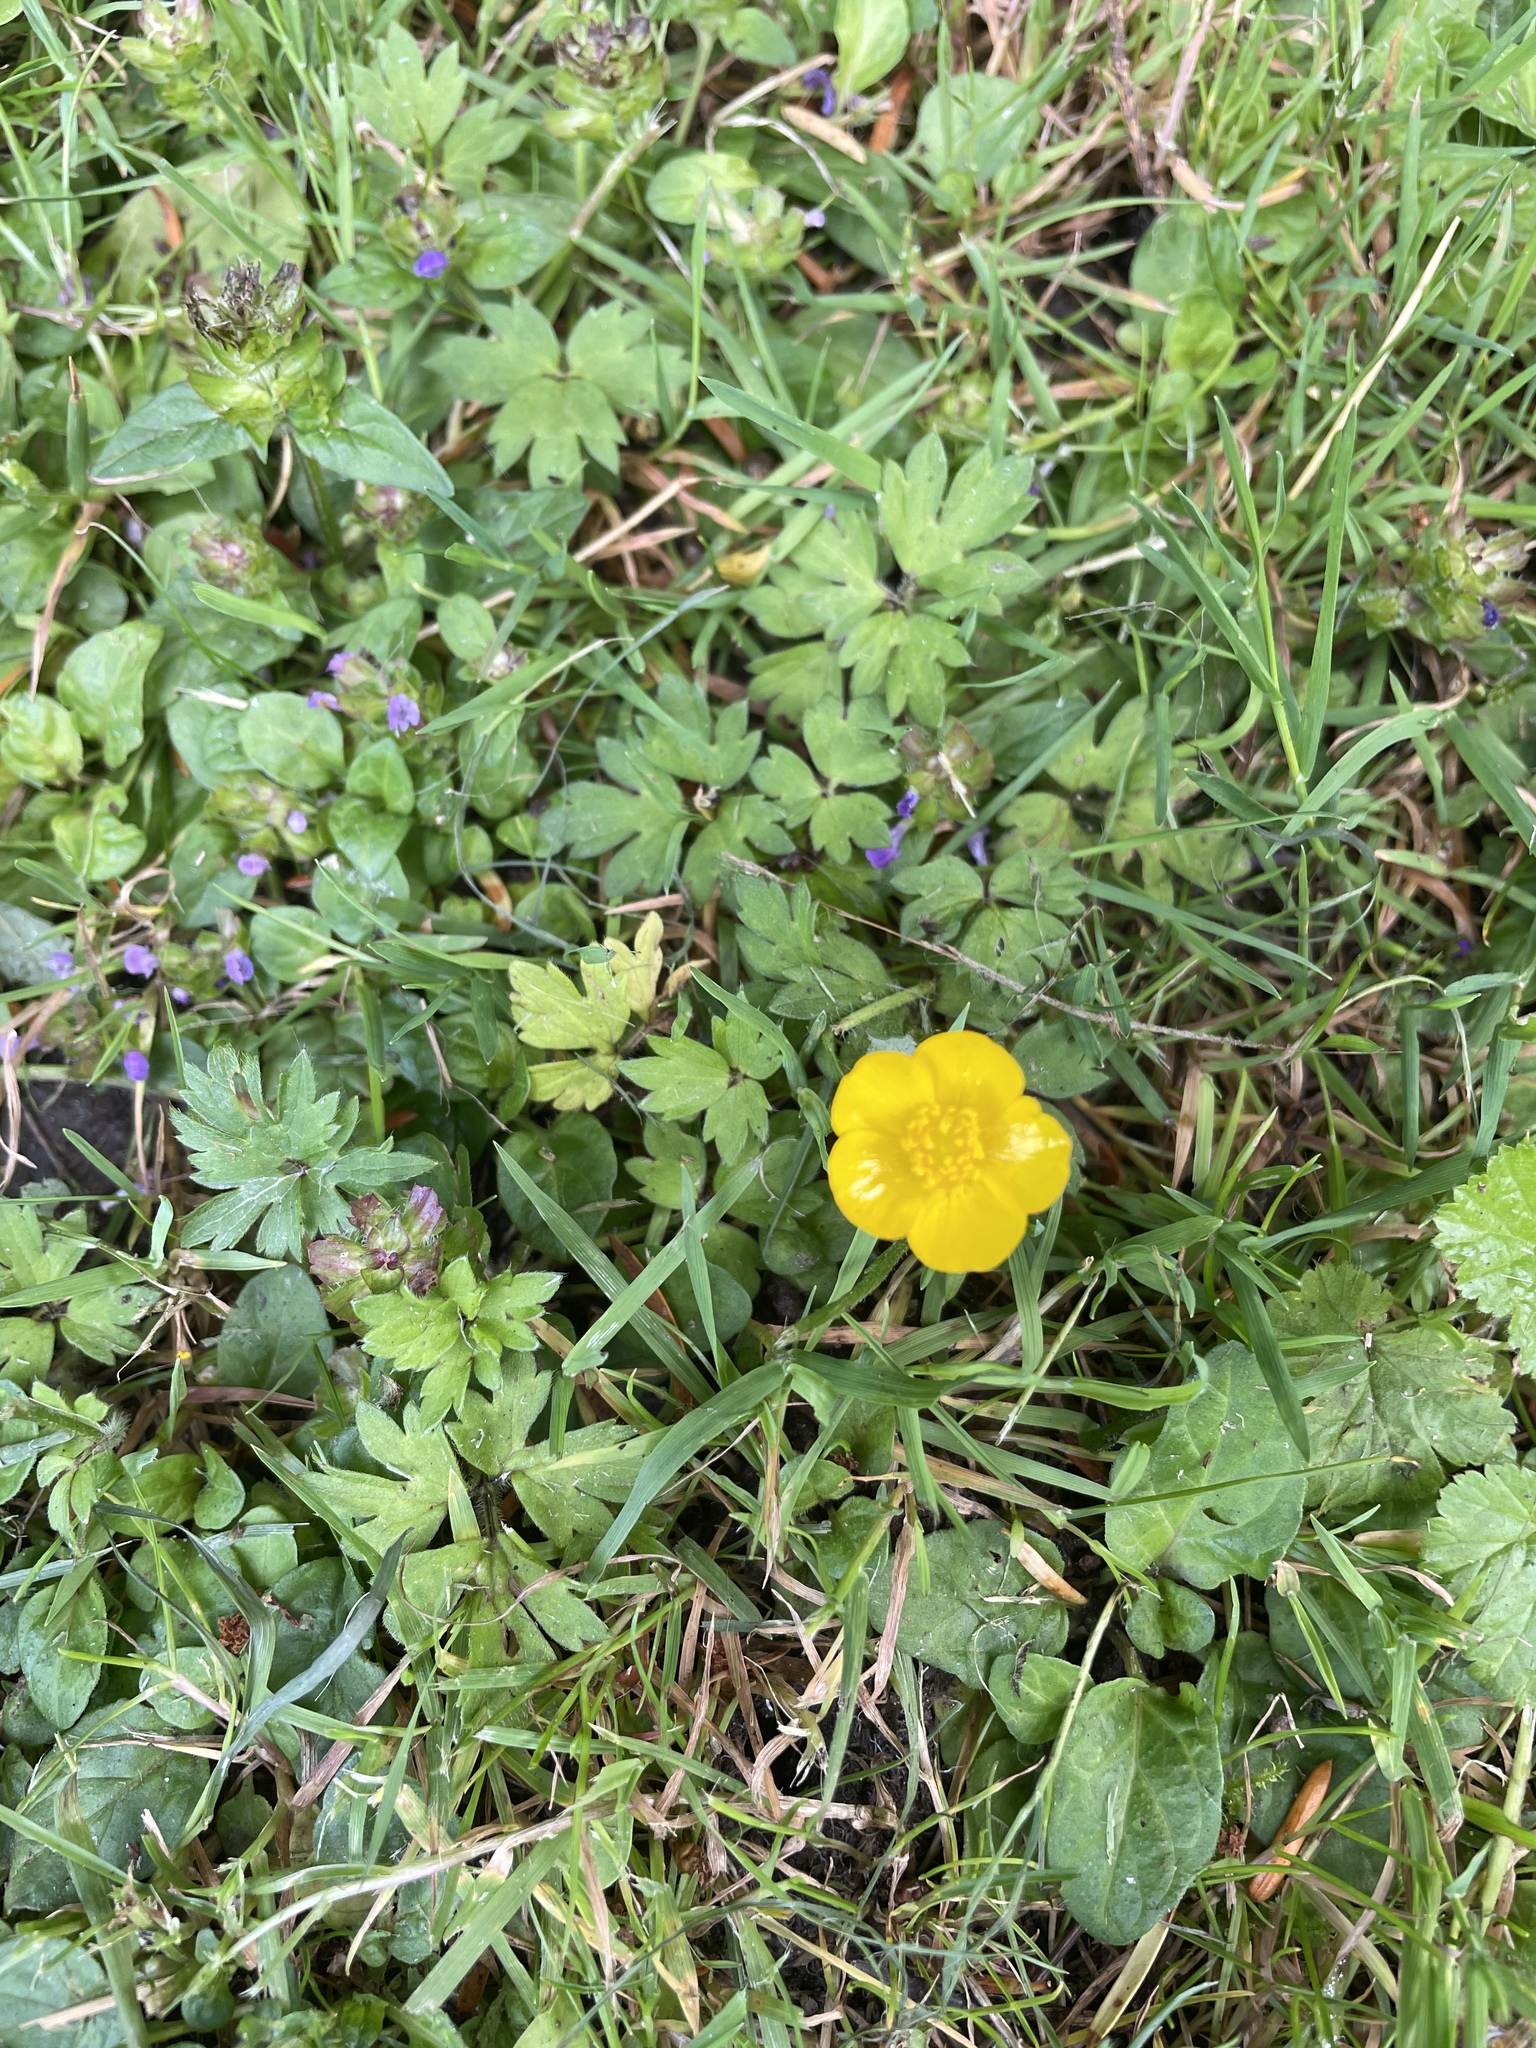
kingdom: Plantae
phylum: Tracheophyta
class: Magnoliopsida
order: Ranunculales
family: Ranunculaceae
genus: Ranunculus
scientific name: Ranunculus repens
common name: Creeping buttercup
